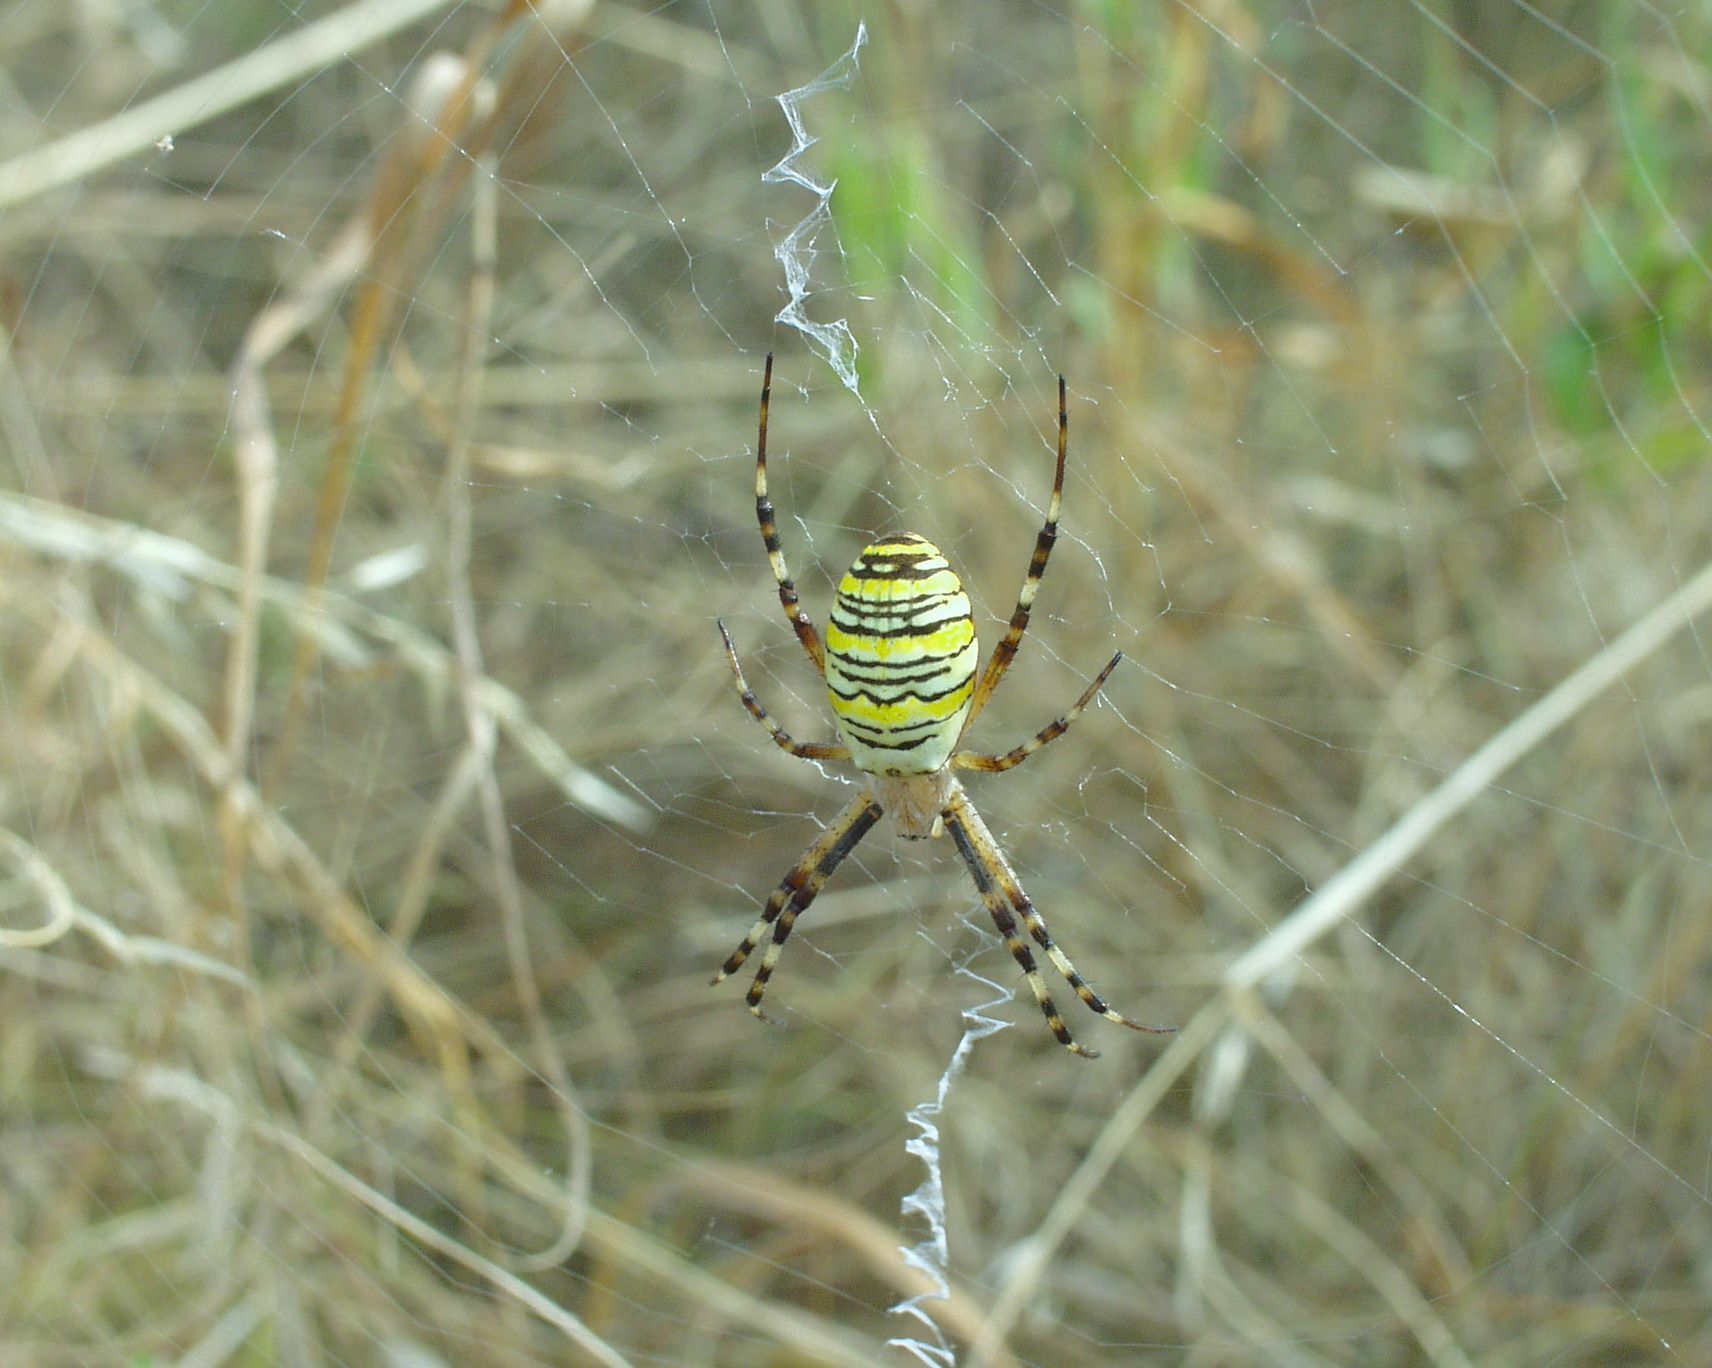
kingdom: Animalia
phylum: Arthropoda
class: Arachnida
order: Araneae
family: Araneidae
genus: Argiope
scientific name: Argiope bruennichi
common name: Wasp spider
